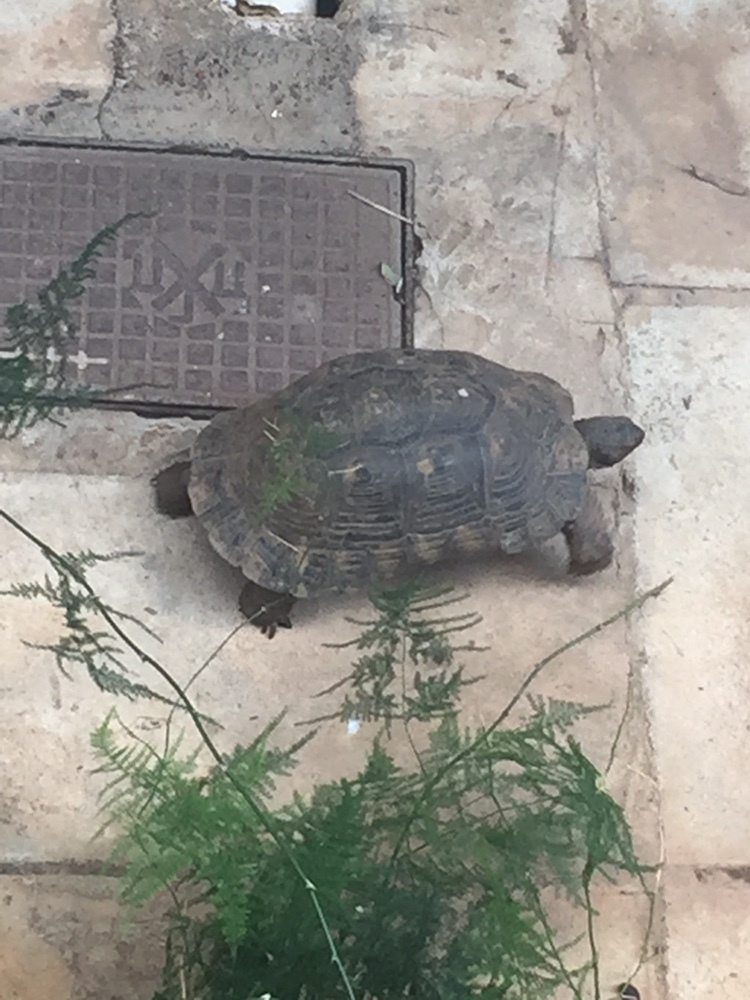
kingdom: Animalia
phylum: Chordata
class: Testudines
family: Testudinidae
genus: Testudo
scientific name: Testudo marginata
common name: Marginated tortoise
